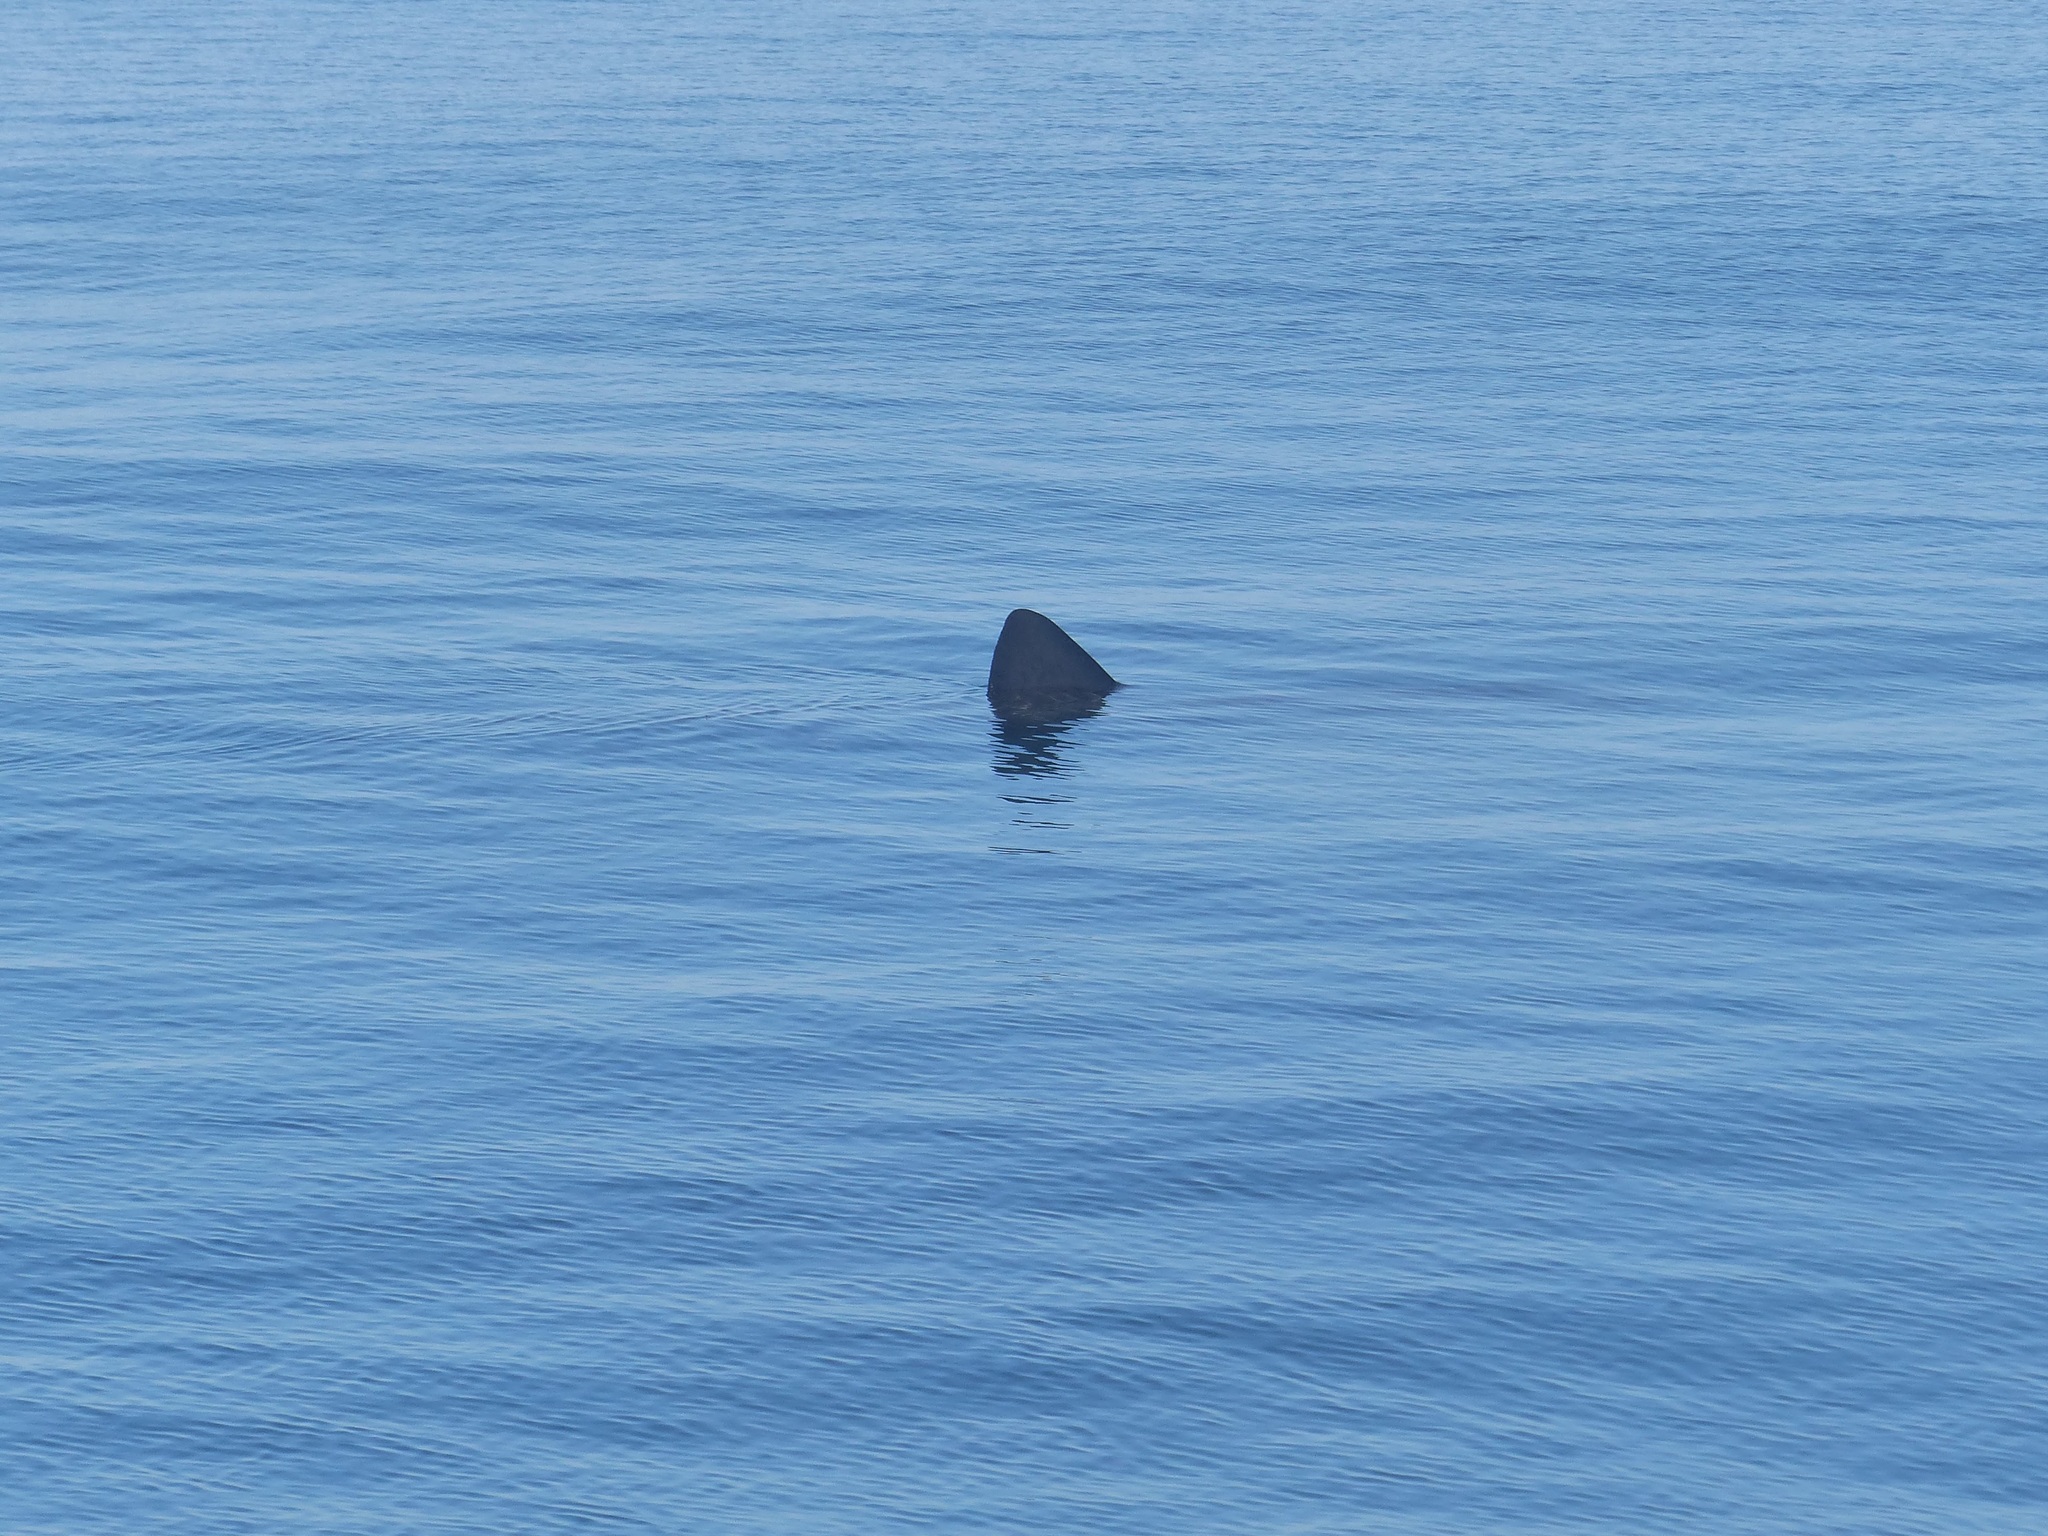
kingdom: Animalia
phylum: Chordata
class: Elasmobranchii
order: Lamniformes
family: Cetorhinidae
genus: Cetorhinus
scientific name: Cetorhinus maximus
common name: Basking shark
